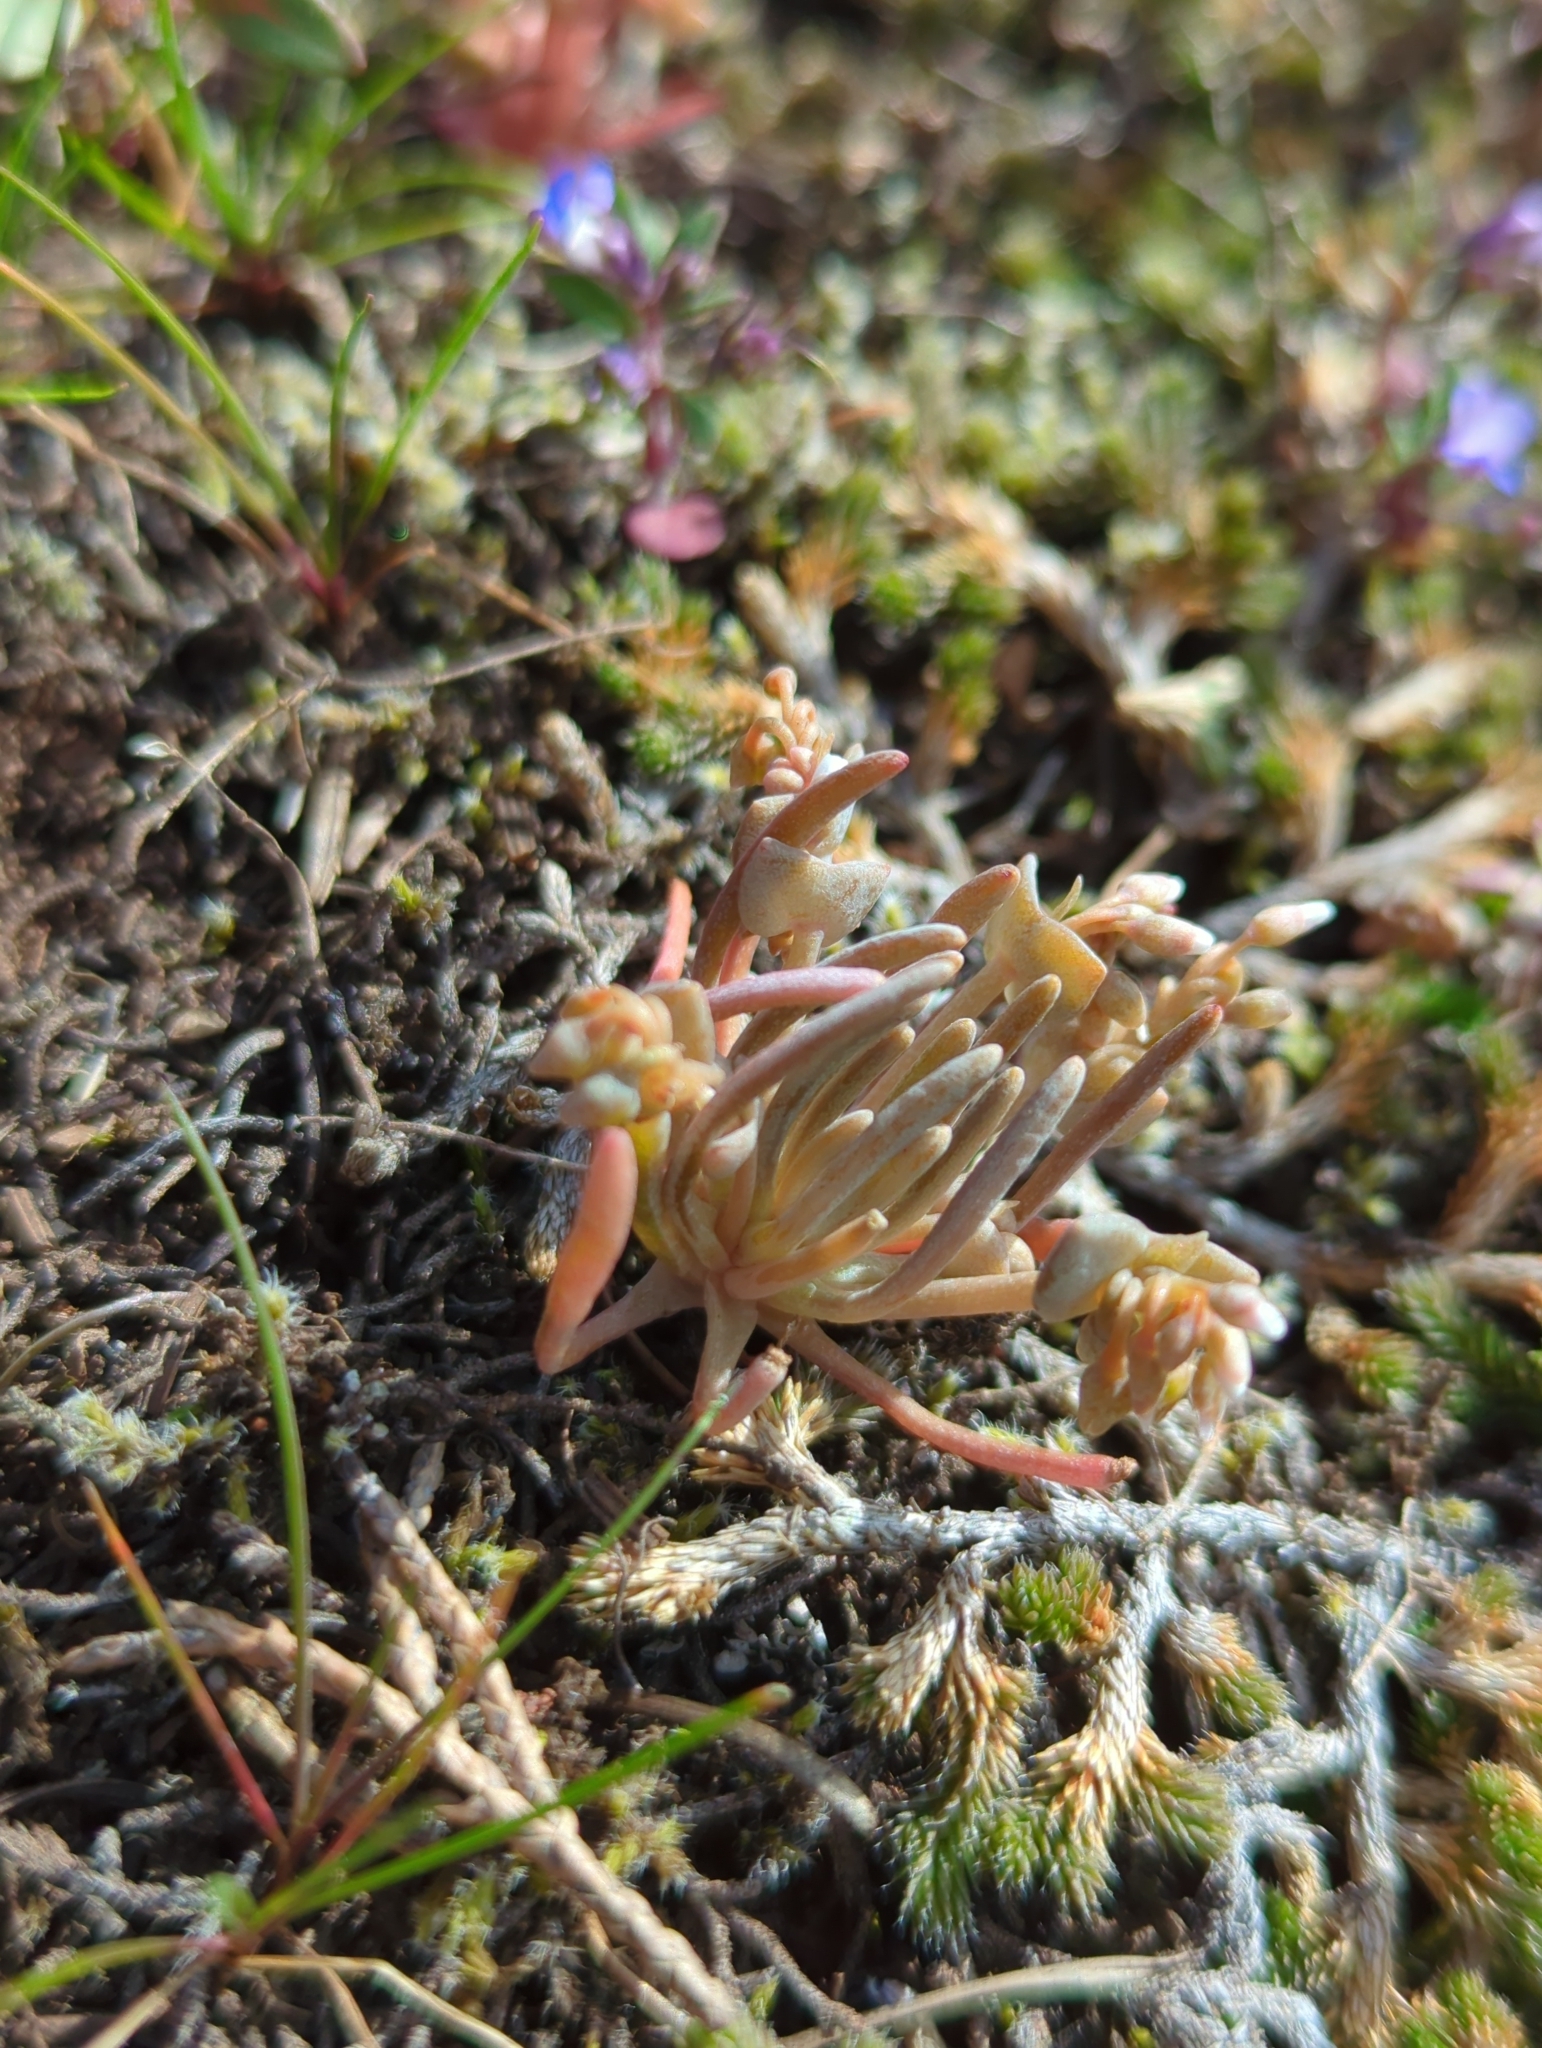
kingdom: Plantae
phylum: Tracheophyta
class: Magnoliopsida
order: Caryophyllales
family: Montiaceae
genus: Claytonia
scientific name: Claytonia exigua
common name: Pale spring beauty
